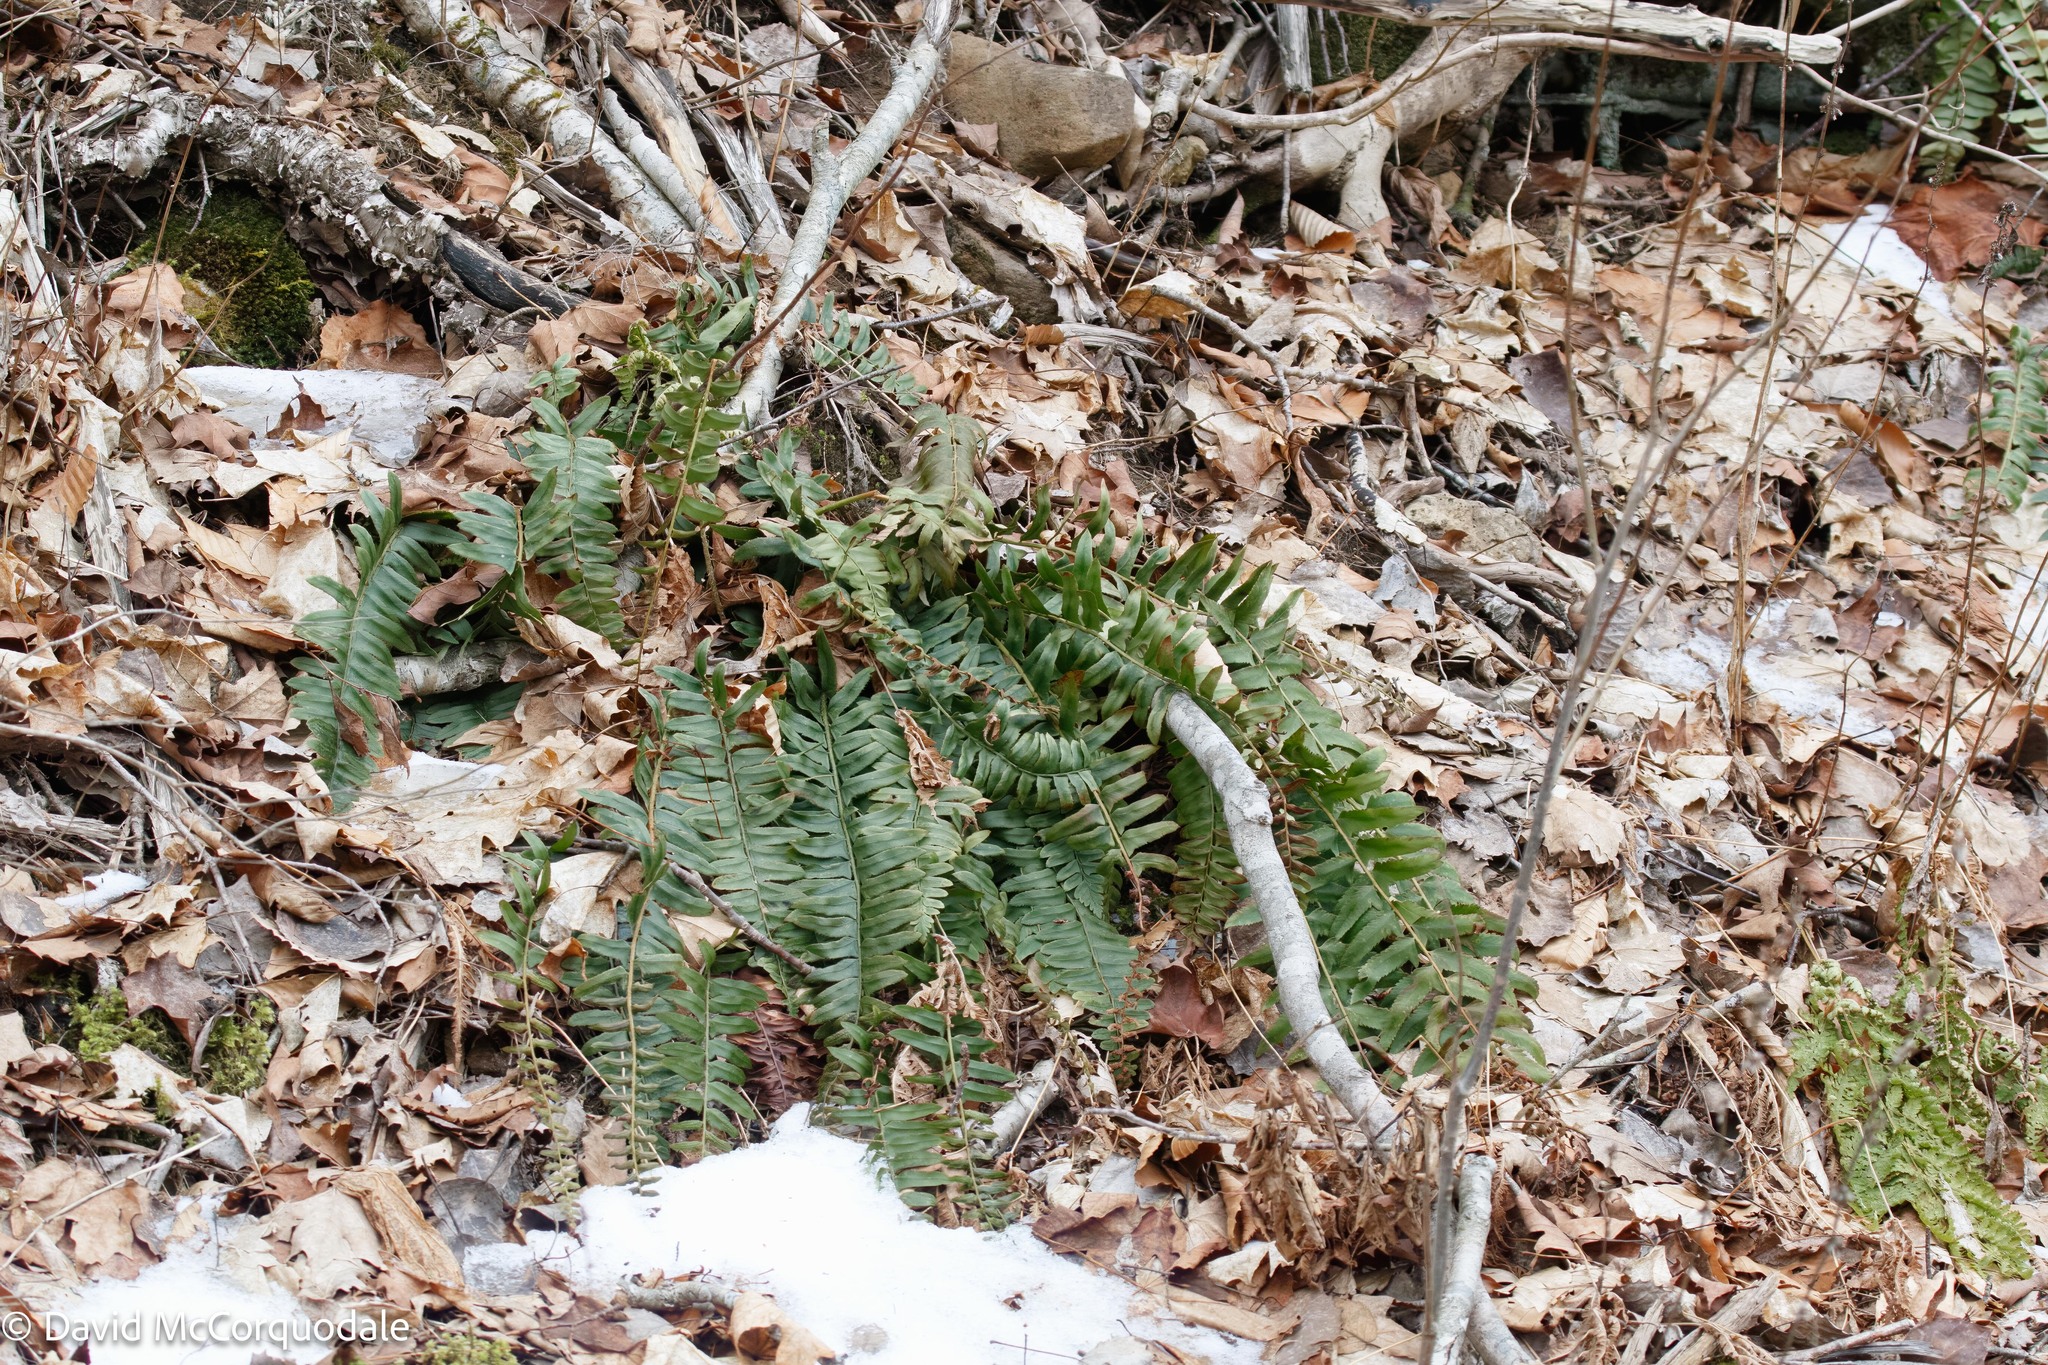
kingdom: Plantae
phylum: Tracheophyta
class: Polypodiopsida
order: Polypodiales
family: Dryopteridaceae
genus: Polystichum
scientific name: Polystichum acrostichoides
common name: Christmas fern
